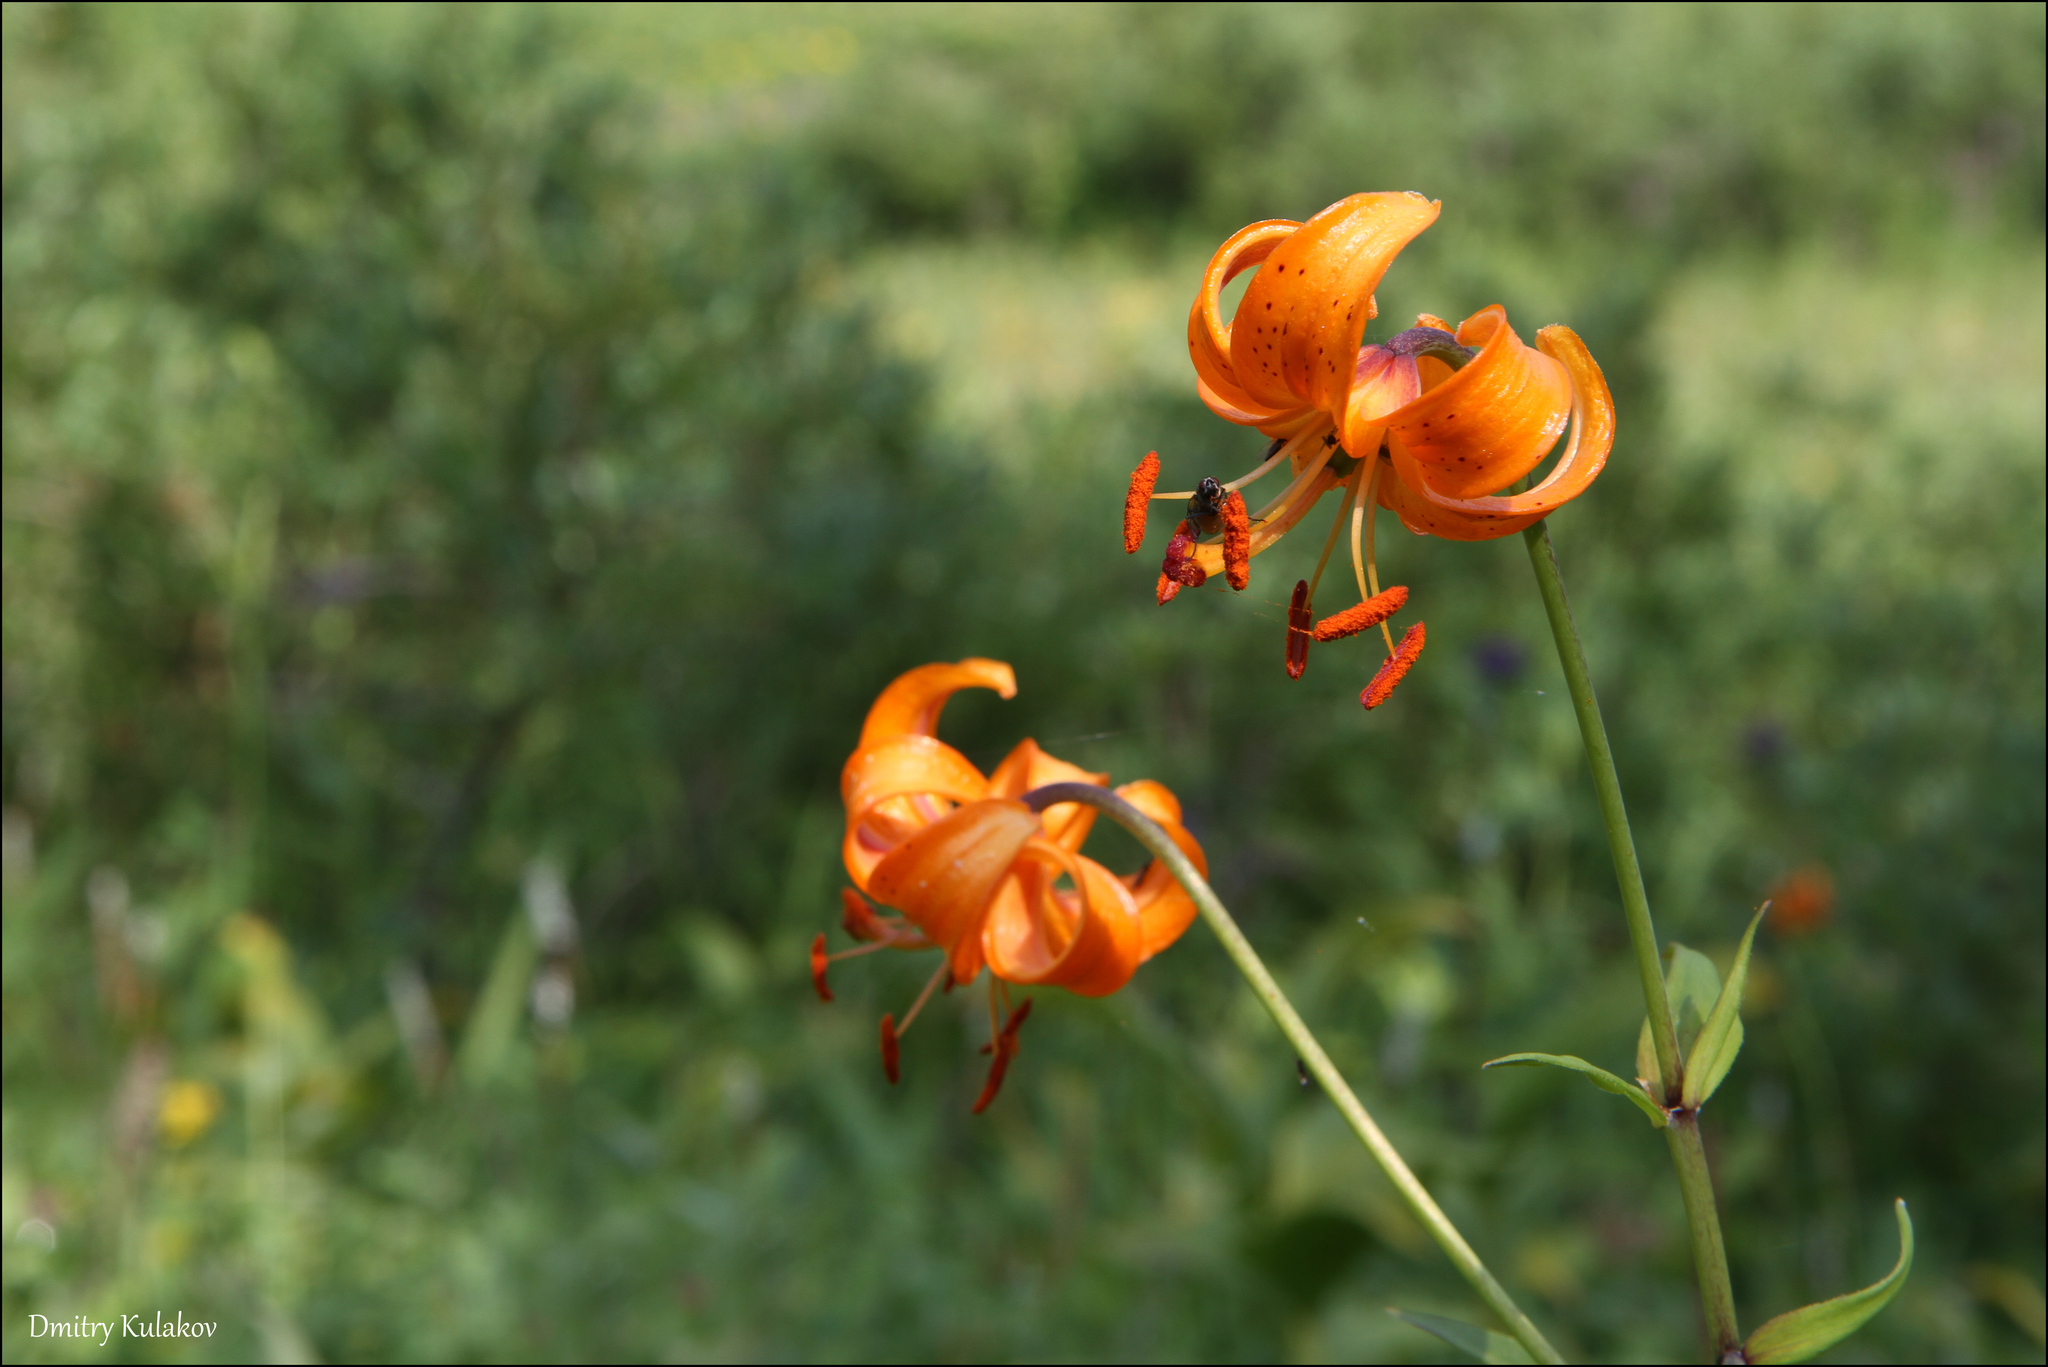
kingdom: Plantae
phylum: Tracheophyta
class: Liliopsida
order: Liliales
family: Liliaceae
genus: Lilium
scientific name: Lilium debile
